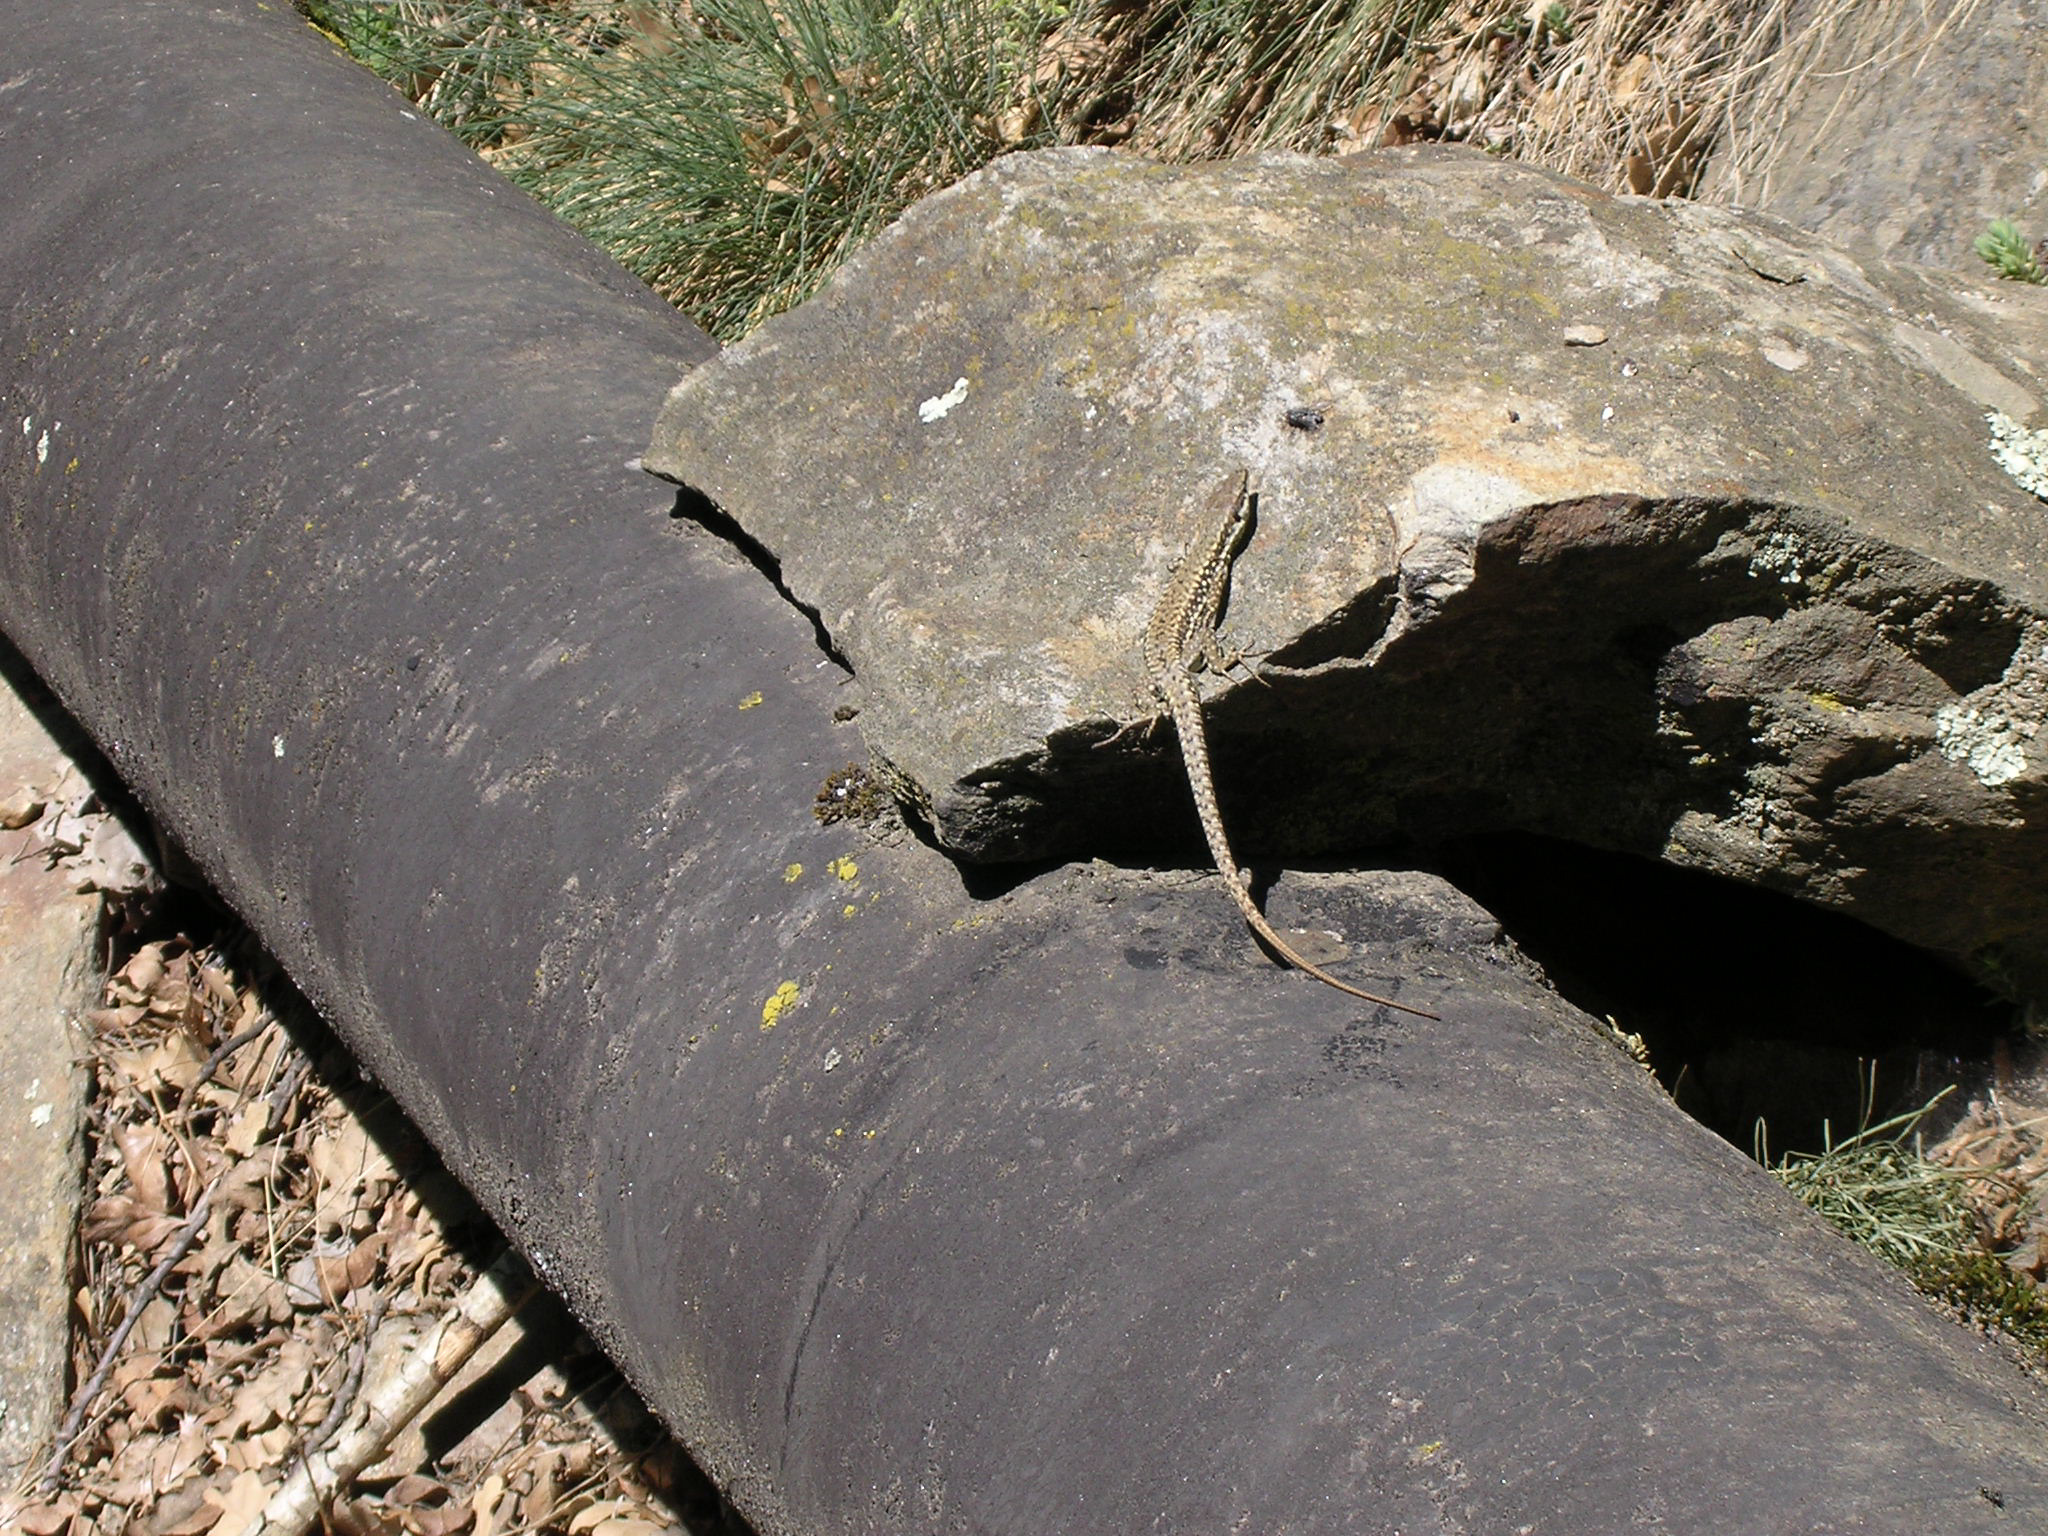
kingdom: Animalia
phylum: Chordata
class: Squamata
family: Lacertidae
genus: Podarcis
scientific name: Podarcis muralis
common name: Common wall lizard
